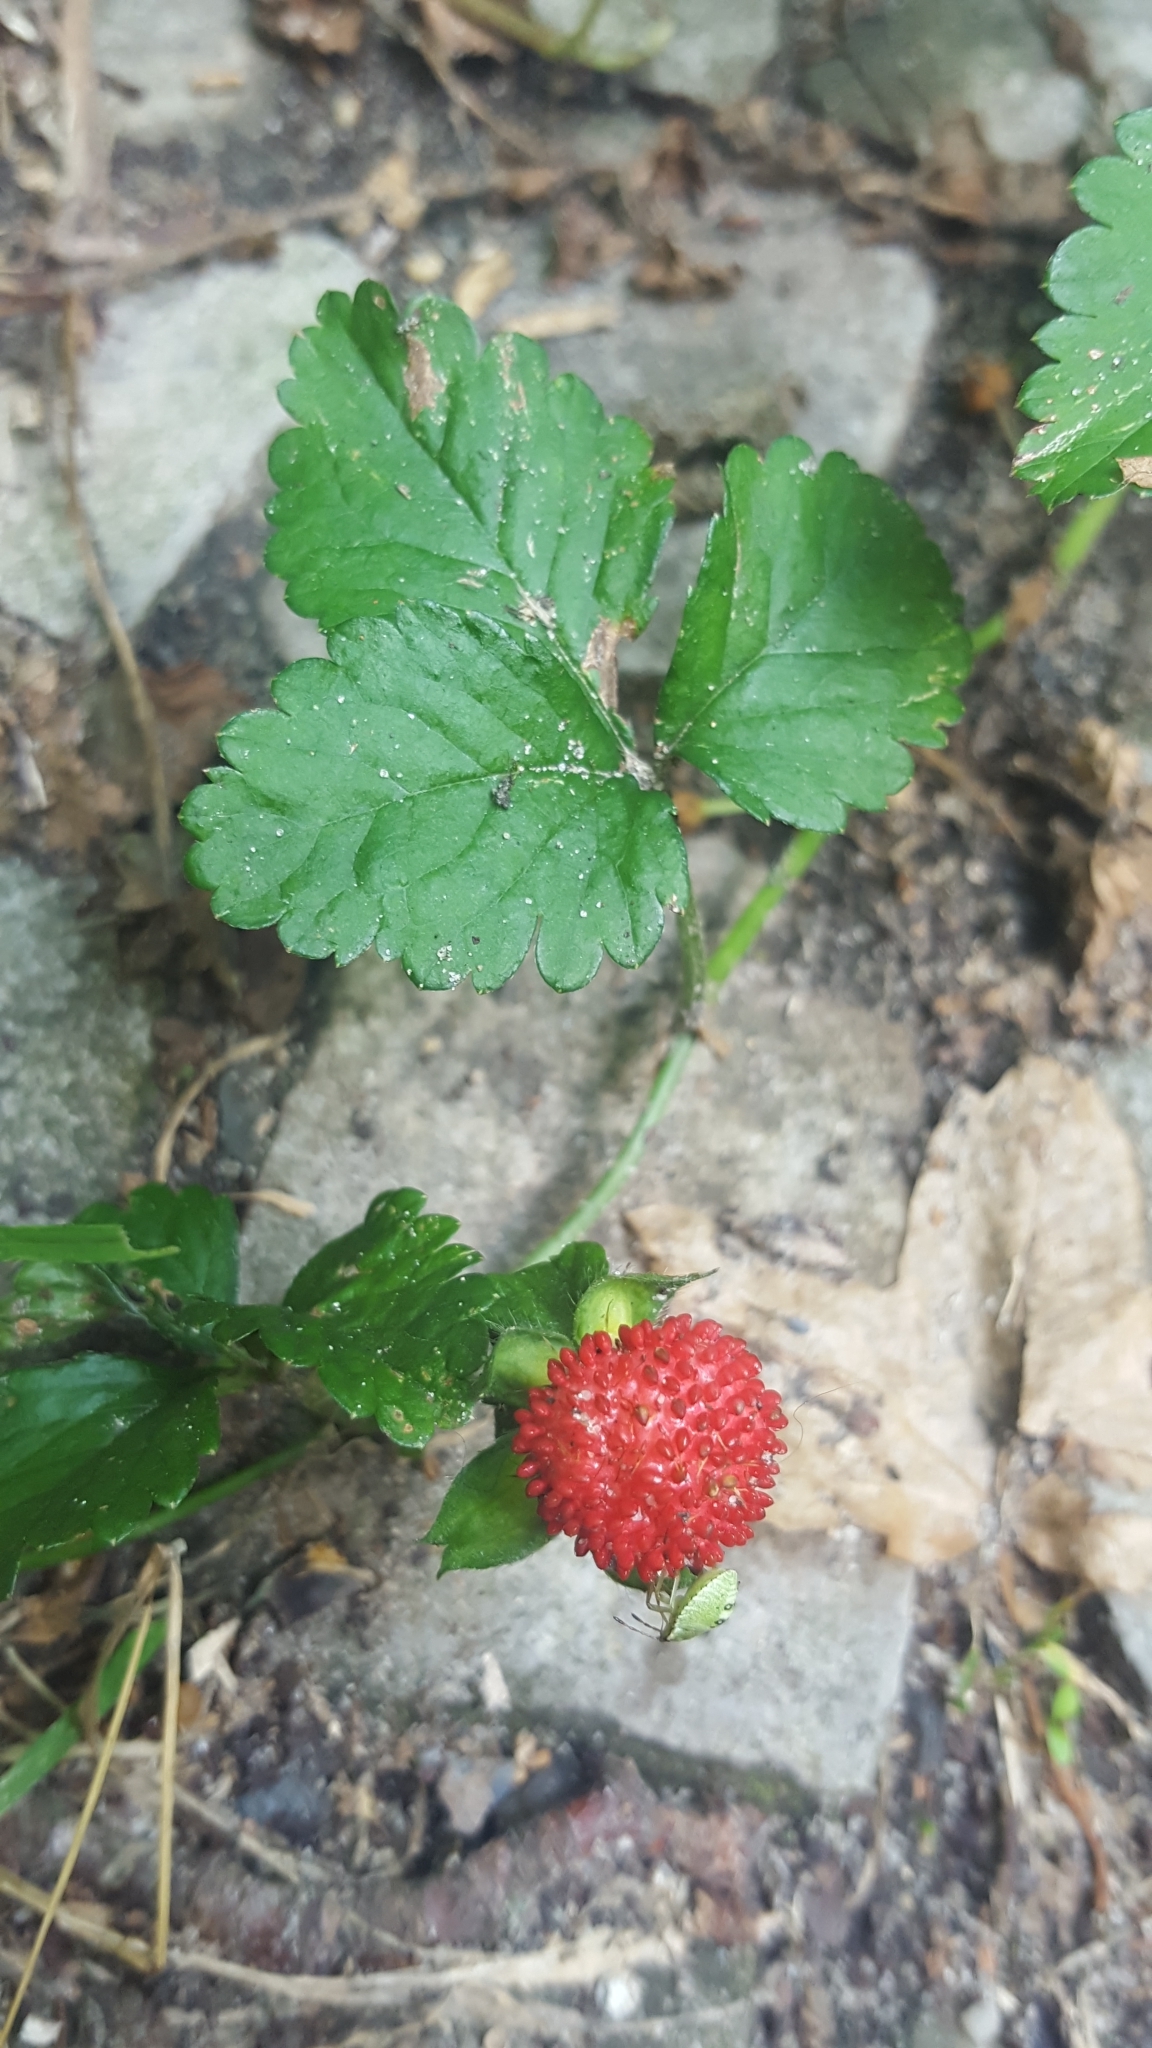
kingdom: Plantae
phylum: Tracheophyta
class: Magnoliopsida
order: Rosales
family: Rosaceae
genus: Potentilla
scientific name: Potentilla indica
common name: Yellow-flowered strawberry
